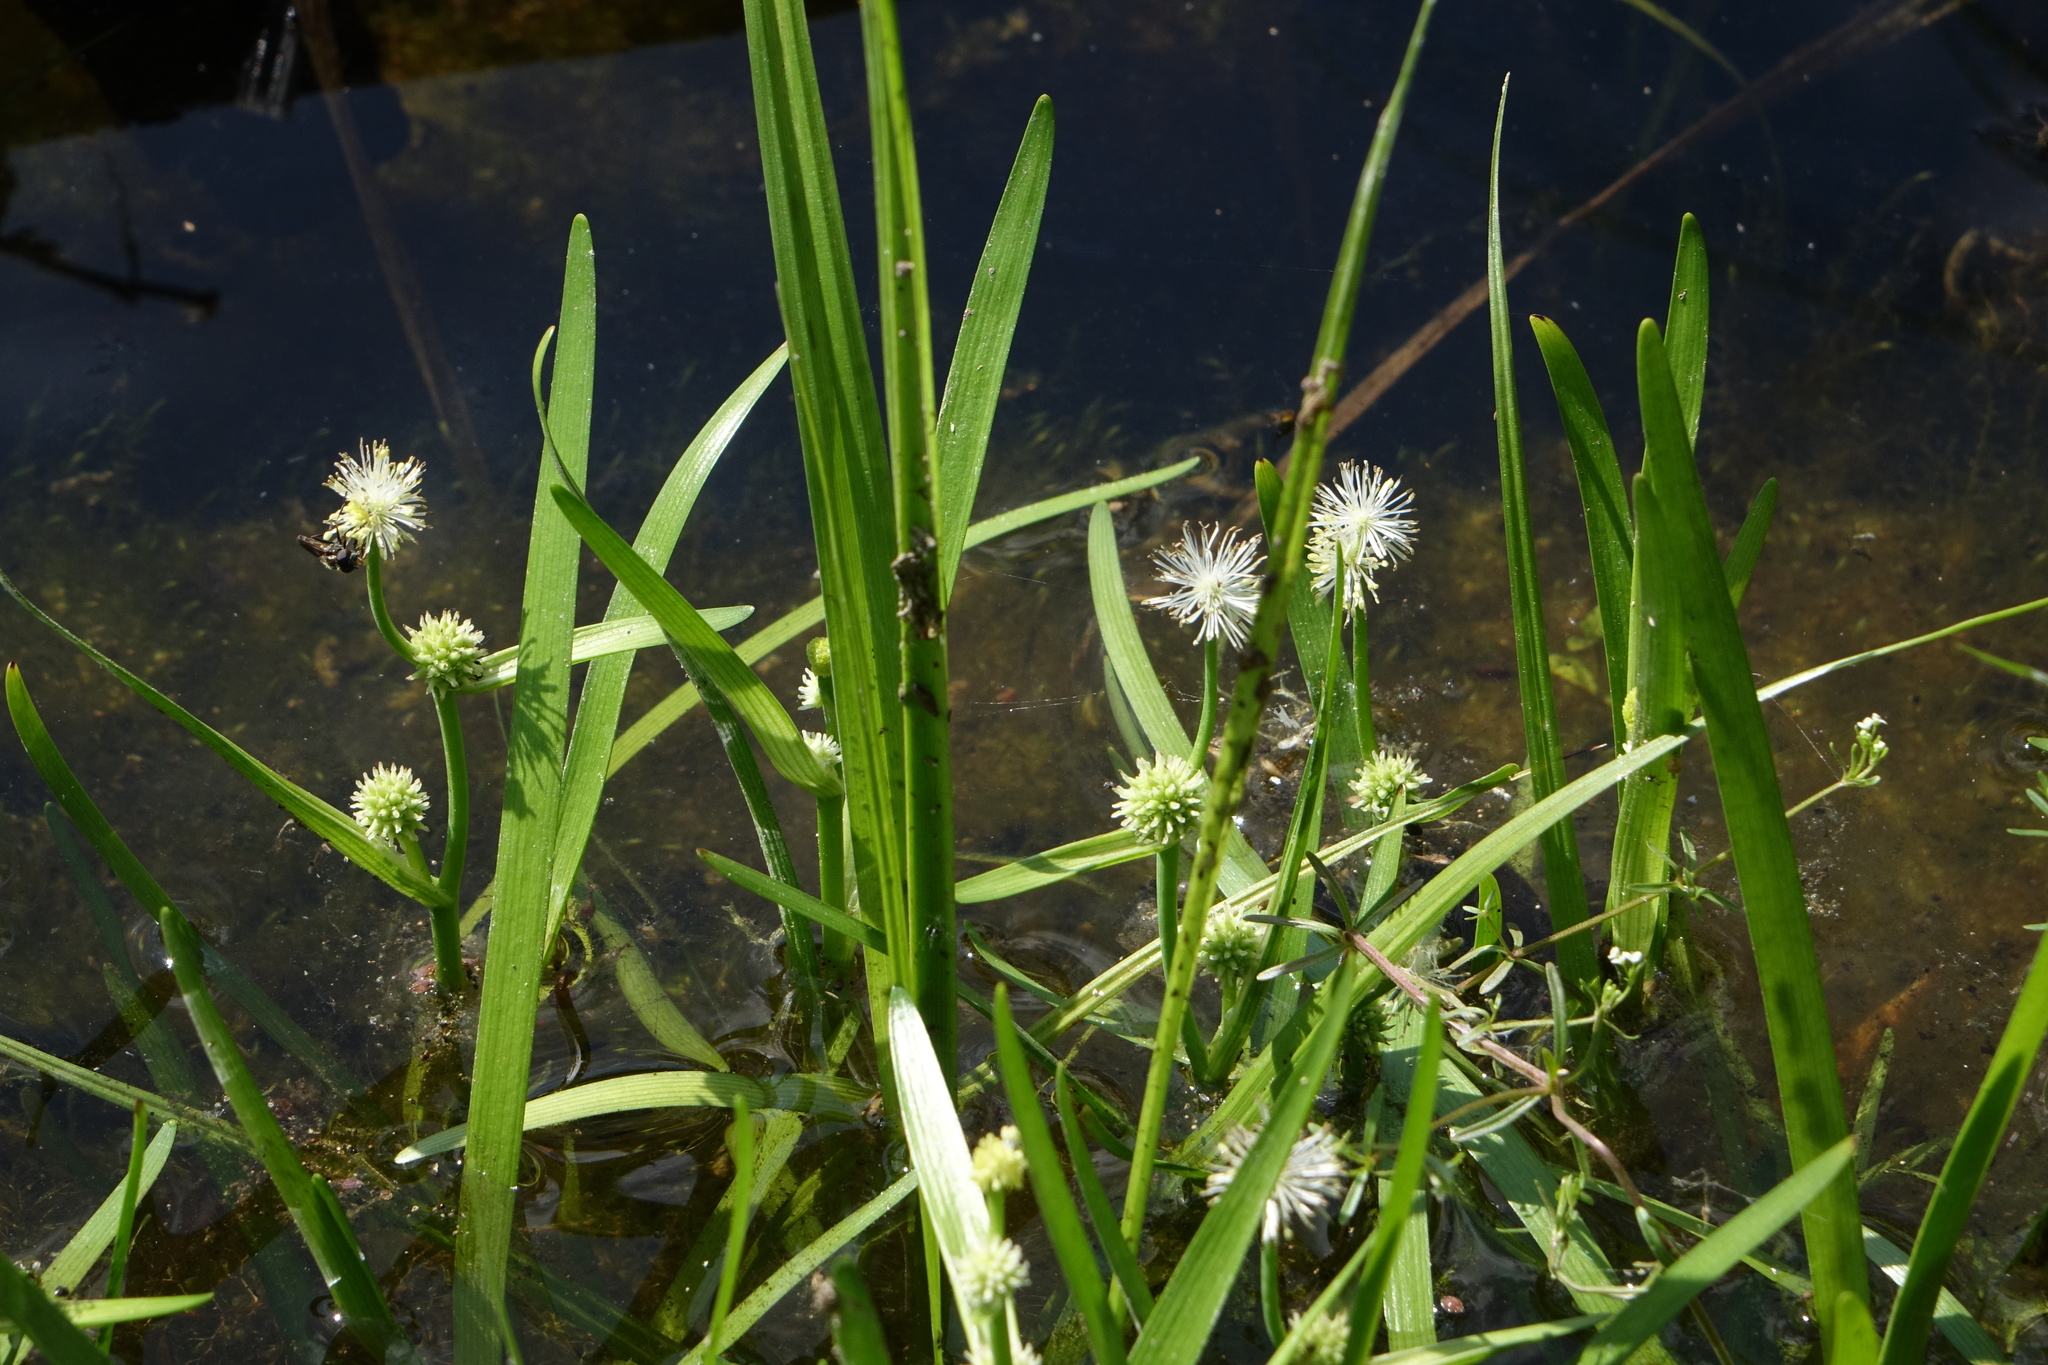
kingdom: Plantae
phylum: Tracheophyta
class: Liliopsida
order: Poales
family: Typhaceae
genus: Sparganium
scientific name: Sparganium natans
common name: Least bur-reed
